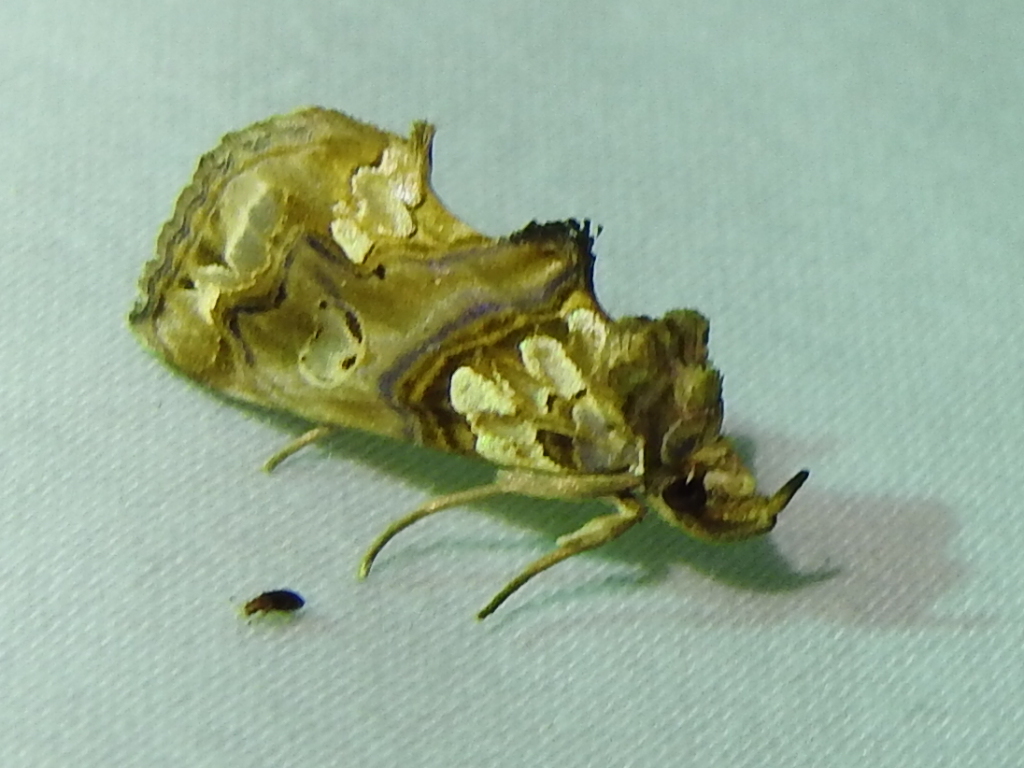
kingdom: Animalia
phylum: Arthropoda
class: Insecta
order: Lepidoptera
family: Erebidae
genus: Plusiodonta
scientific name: Plusiodonta compressipalpis
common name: Moonseed moth
